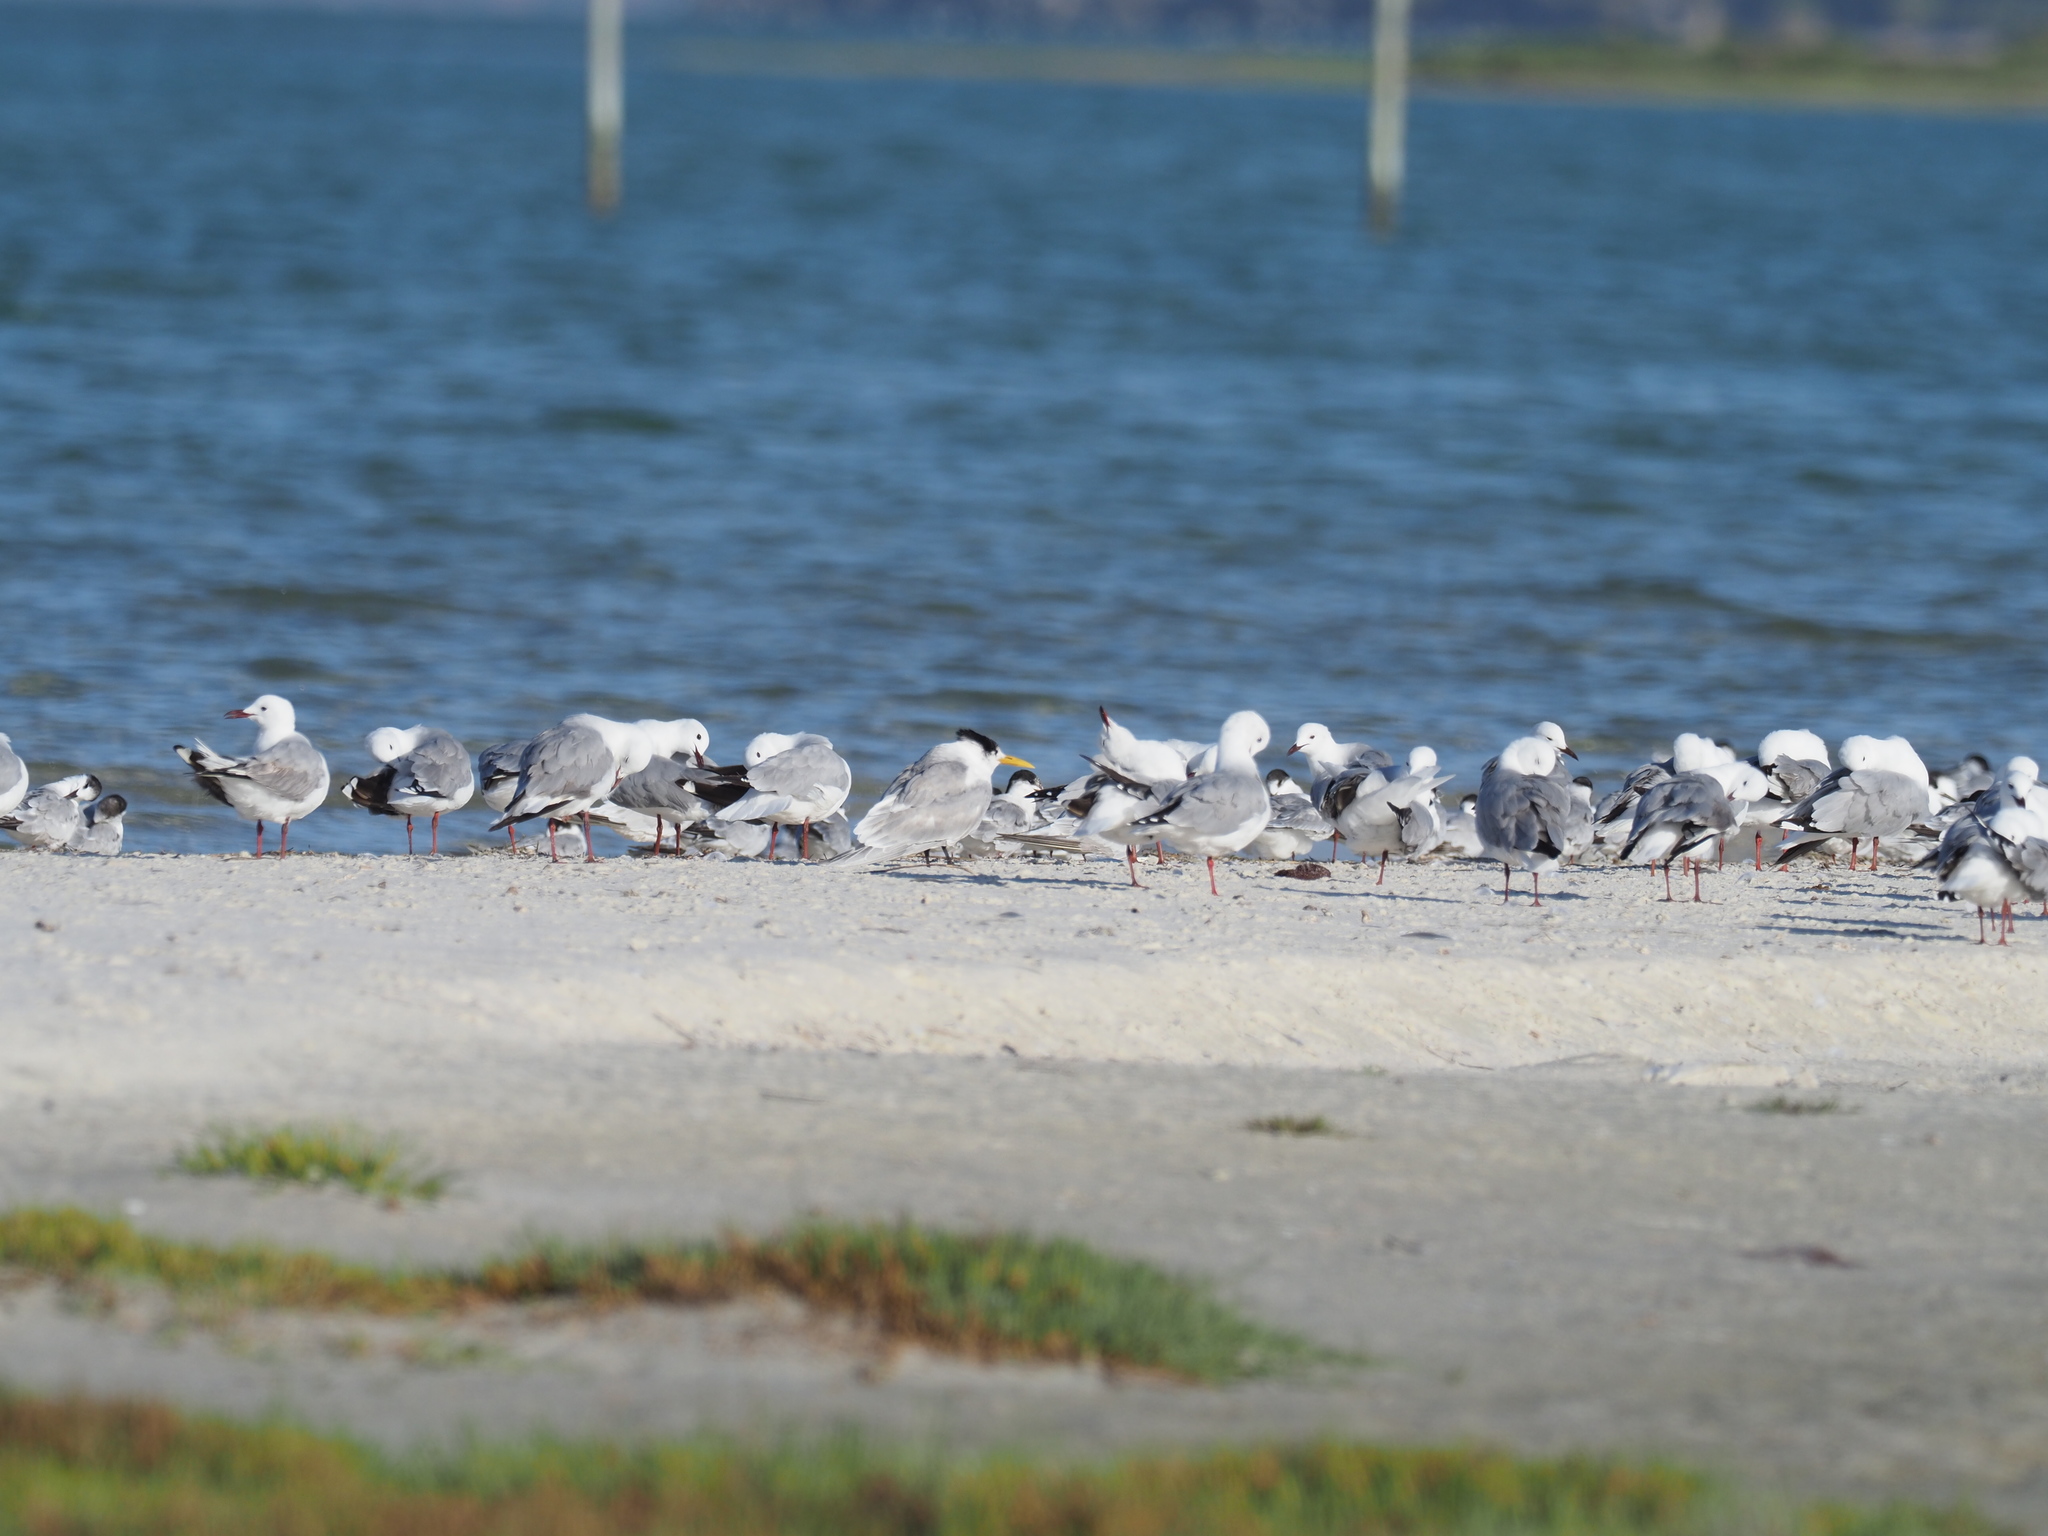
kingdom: Animalia
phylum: Chordata
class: Aves
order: Charadriiformes
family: Laridae
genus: Thalasseus
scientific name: Thalasseus bergii
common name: Greater crested tern
